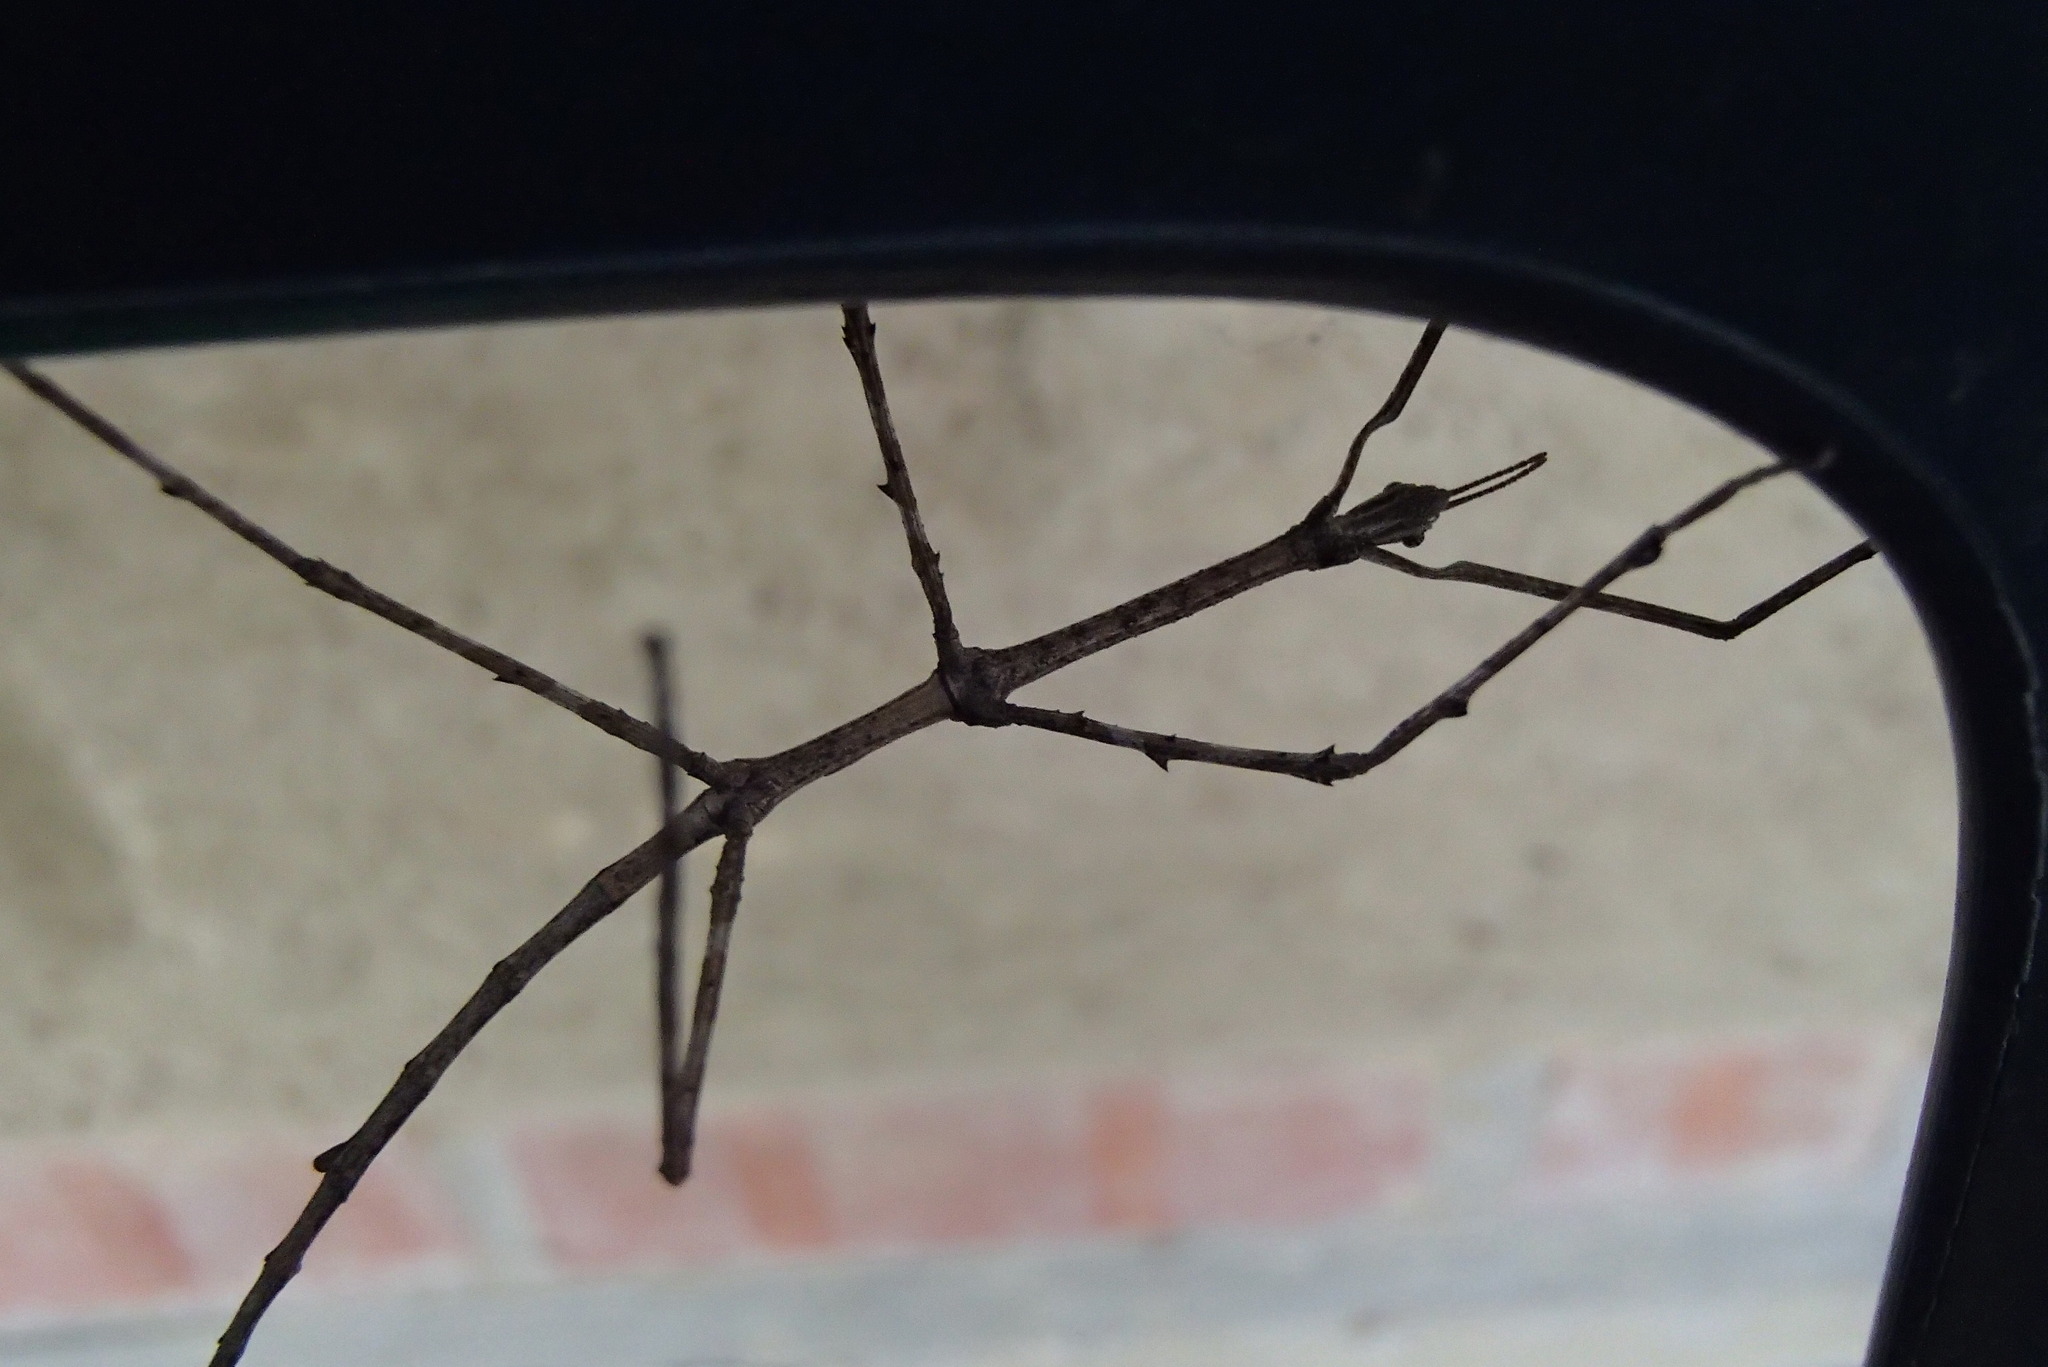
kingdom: Animalia
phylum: Arthropoda
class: Insecta
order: Phasmida
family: Phasmatidae
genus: Ctenomorpha
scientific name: Ctenomorpha marginipennis
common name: Margined-winged stick-insect
